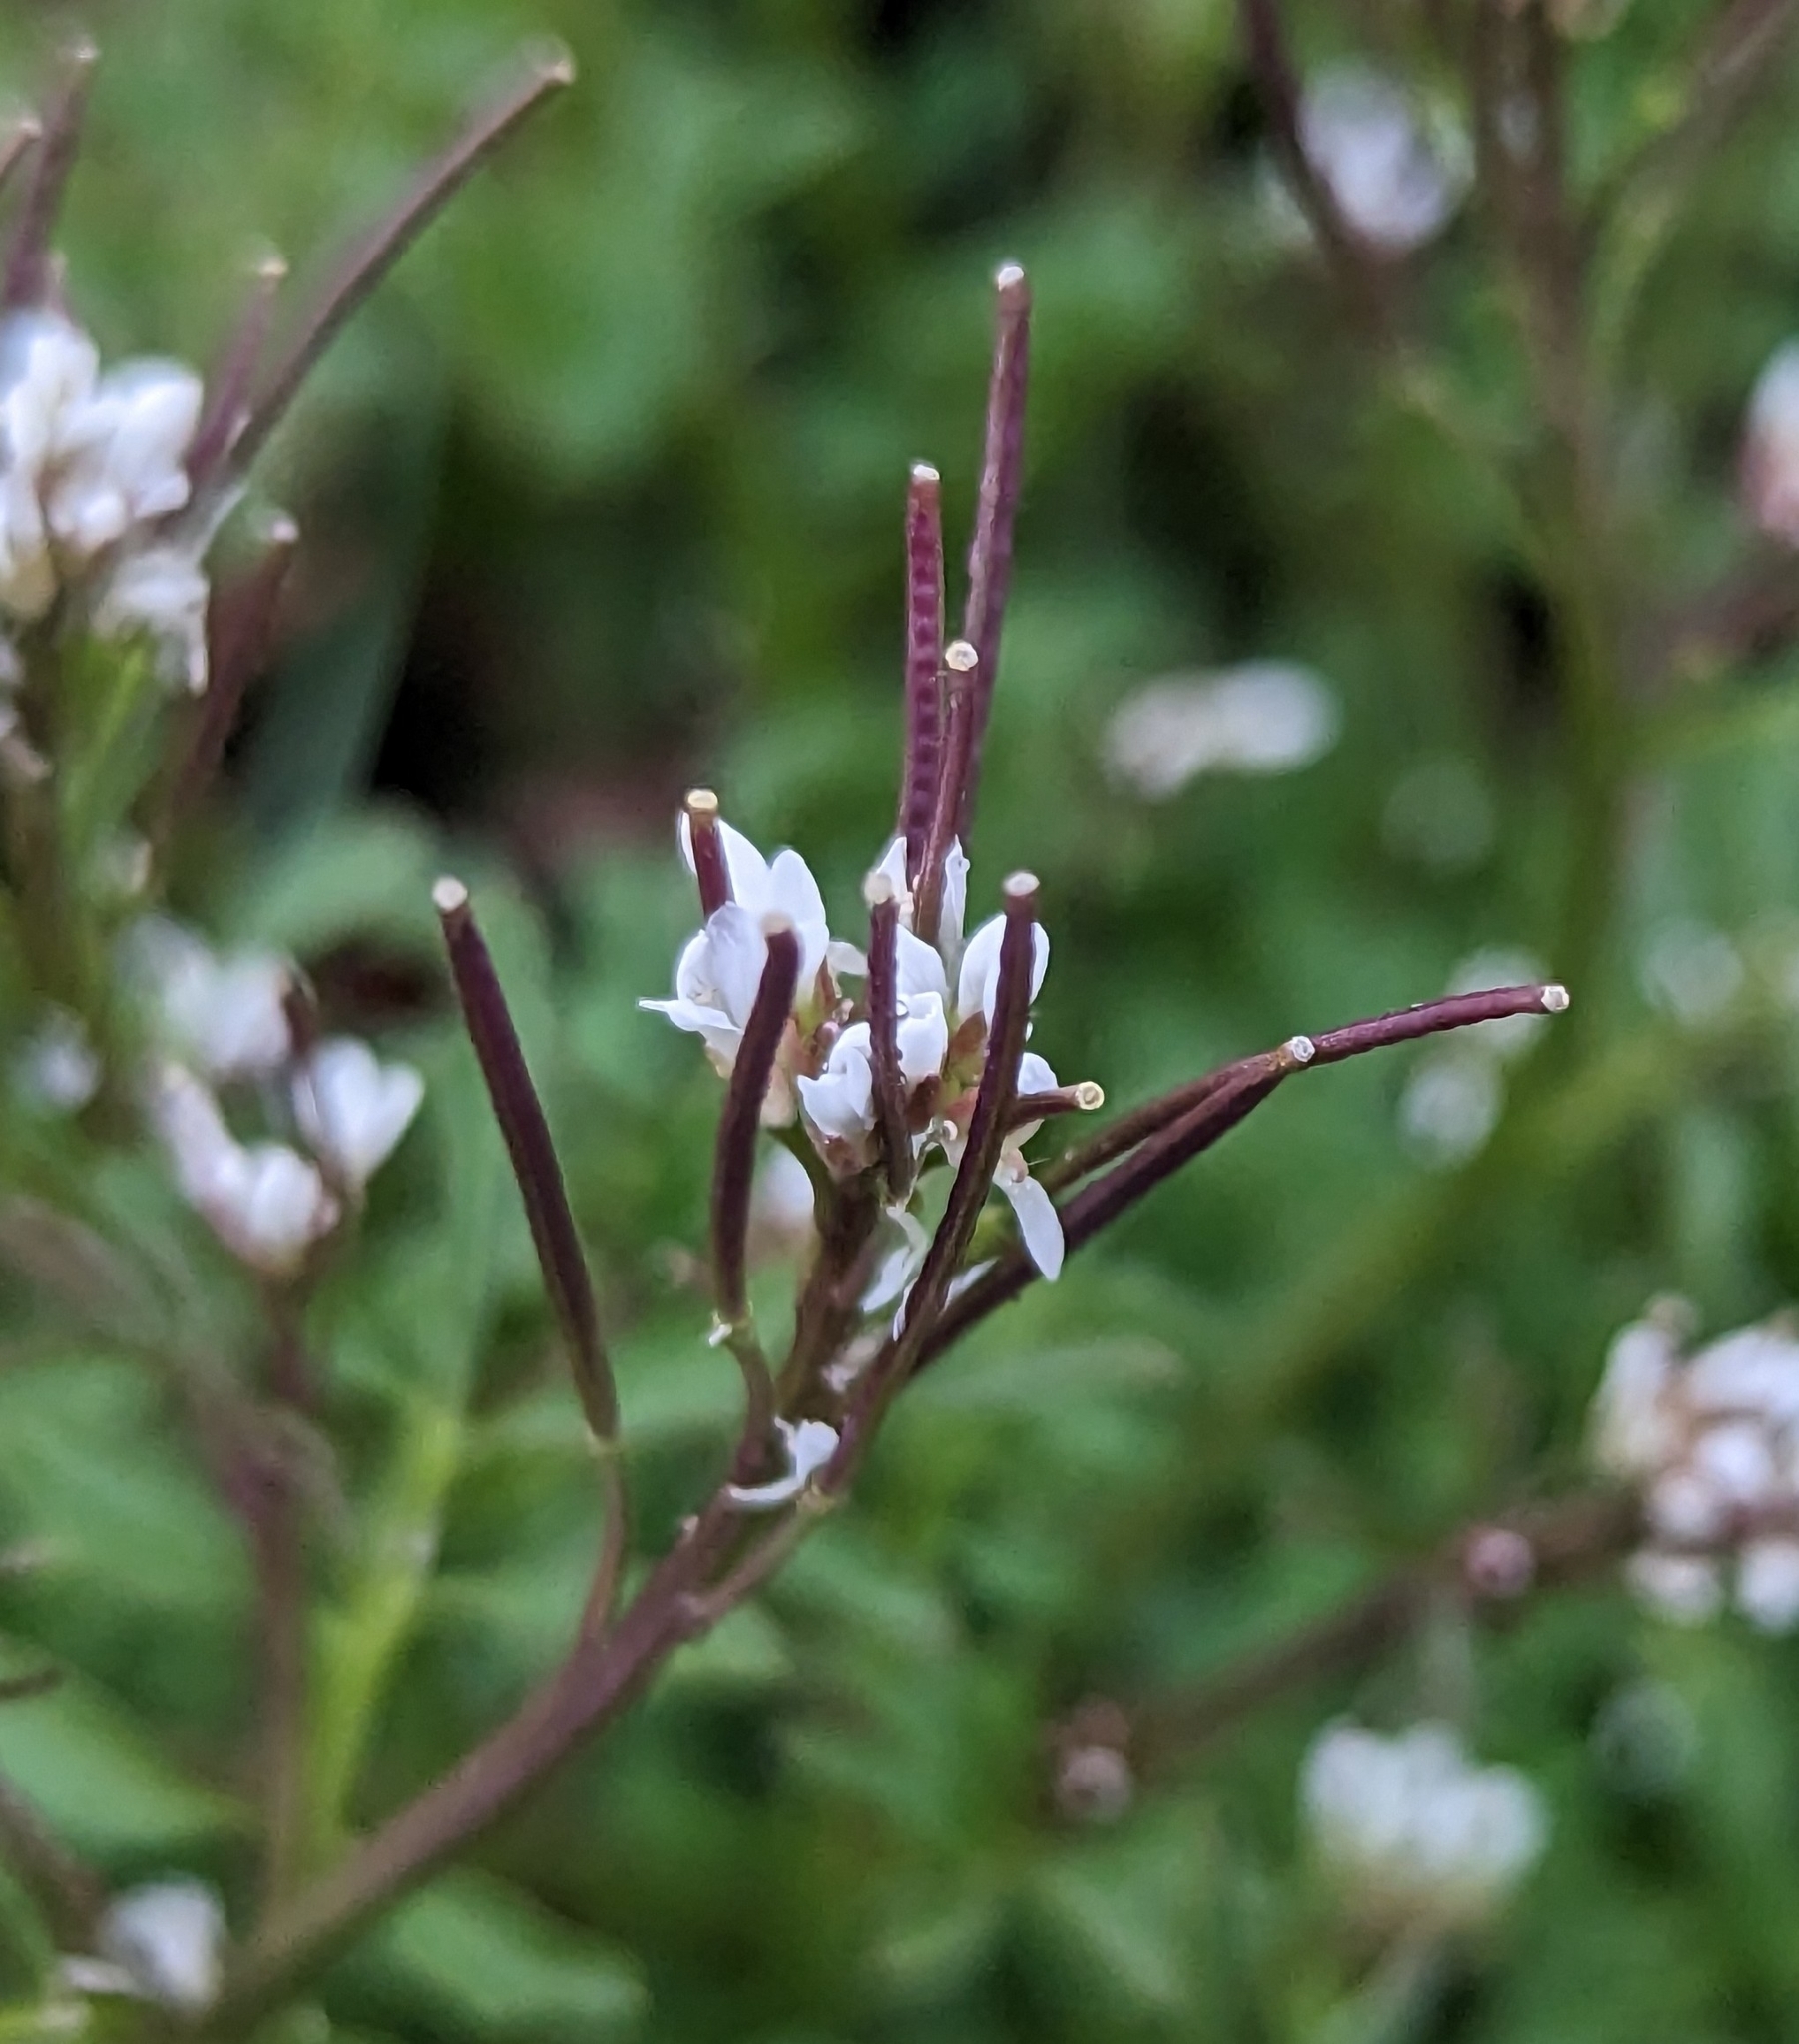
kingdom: Plantae
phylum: Tracheophyta
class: Magnoliopsida
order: Brassicales
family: Brassicaceae
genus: Cardamine
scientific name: Cardamine hirsuta
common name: Hairy bittercress
